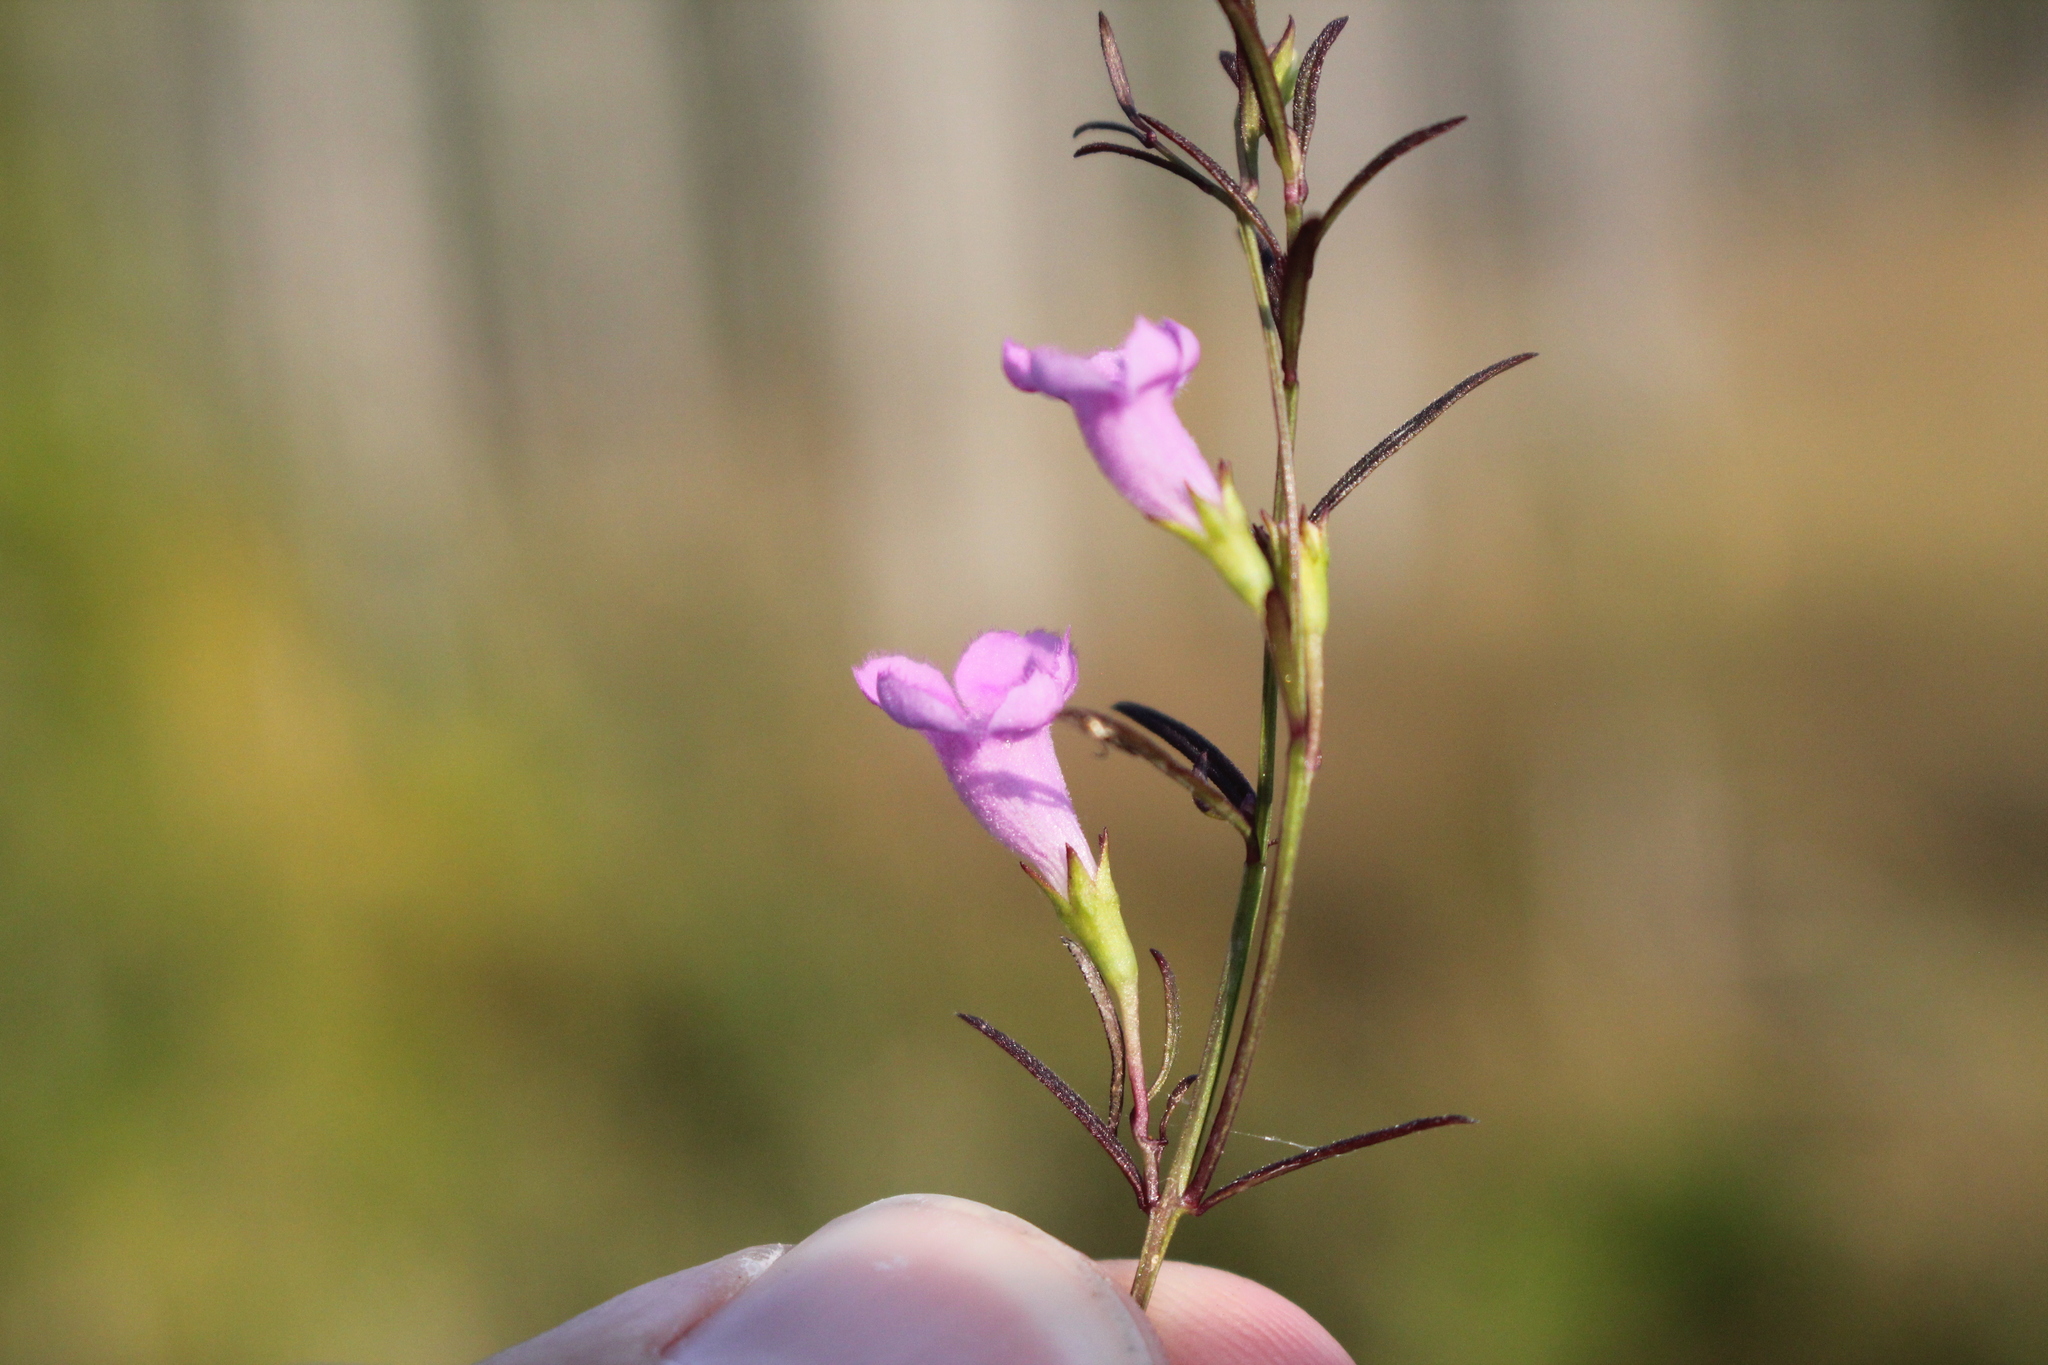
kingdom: Plantae
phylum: Tracheophyta
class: Magnoliopsida
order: Lamiales
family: Orobanchaceae
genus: Agalinis
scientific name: Agalinis purpurea
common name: Purple false foxglove
